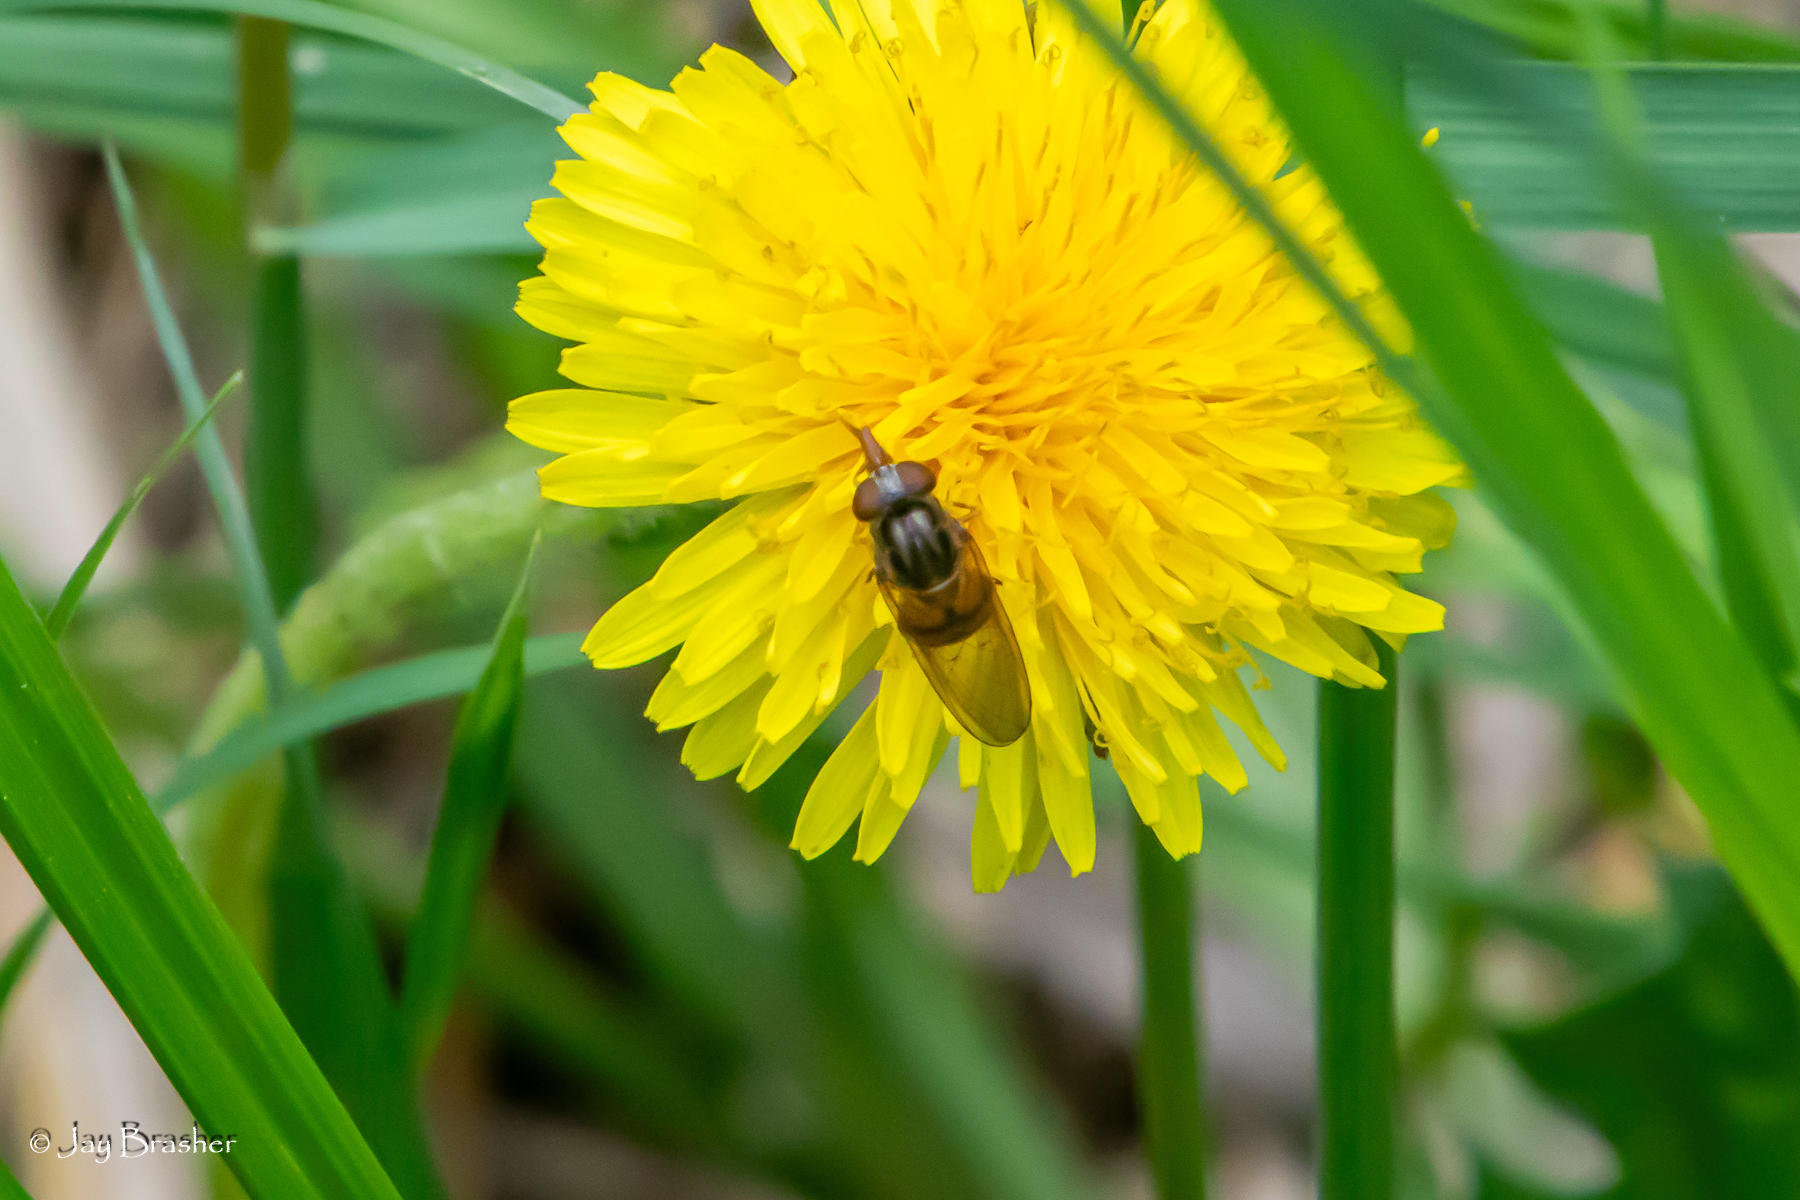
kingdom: Animalia
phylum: Arthropoda
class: Insecta
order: Diptera
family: Syrphidae
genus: Rhingia
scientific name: Rhingia nasica
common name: American snout fly
